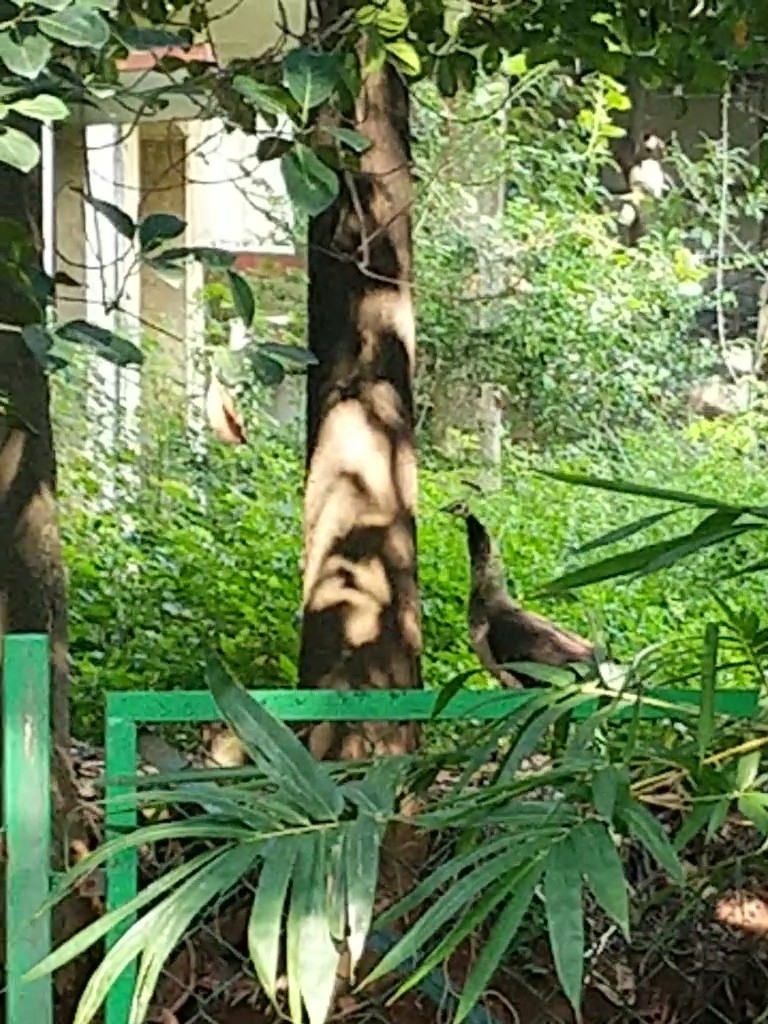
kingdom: Animalia
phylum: Chordata
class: Aves
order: Galliformes
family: Phasianidae
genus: Pavo
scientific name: Pavo cristatus
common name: Indian peafowl
